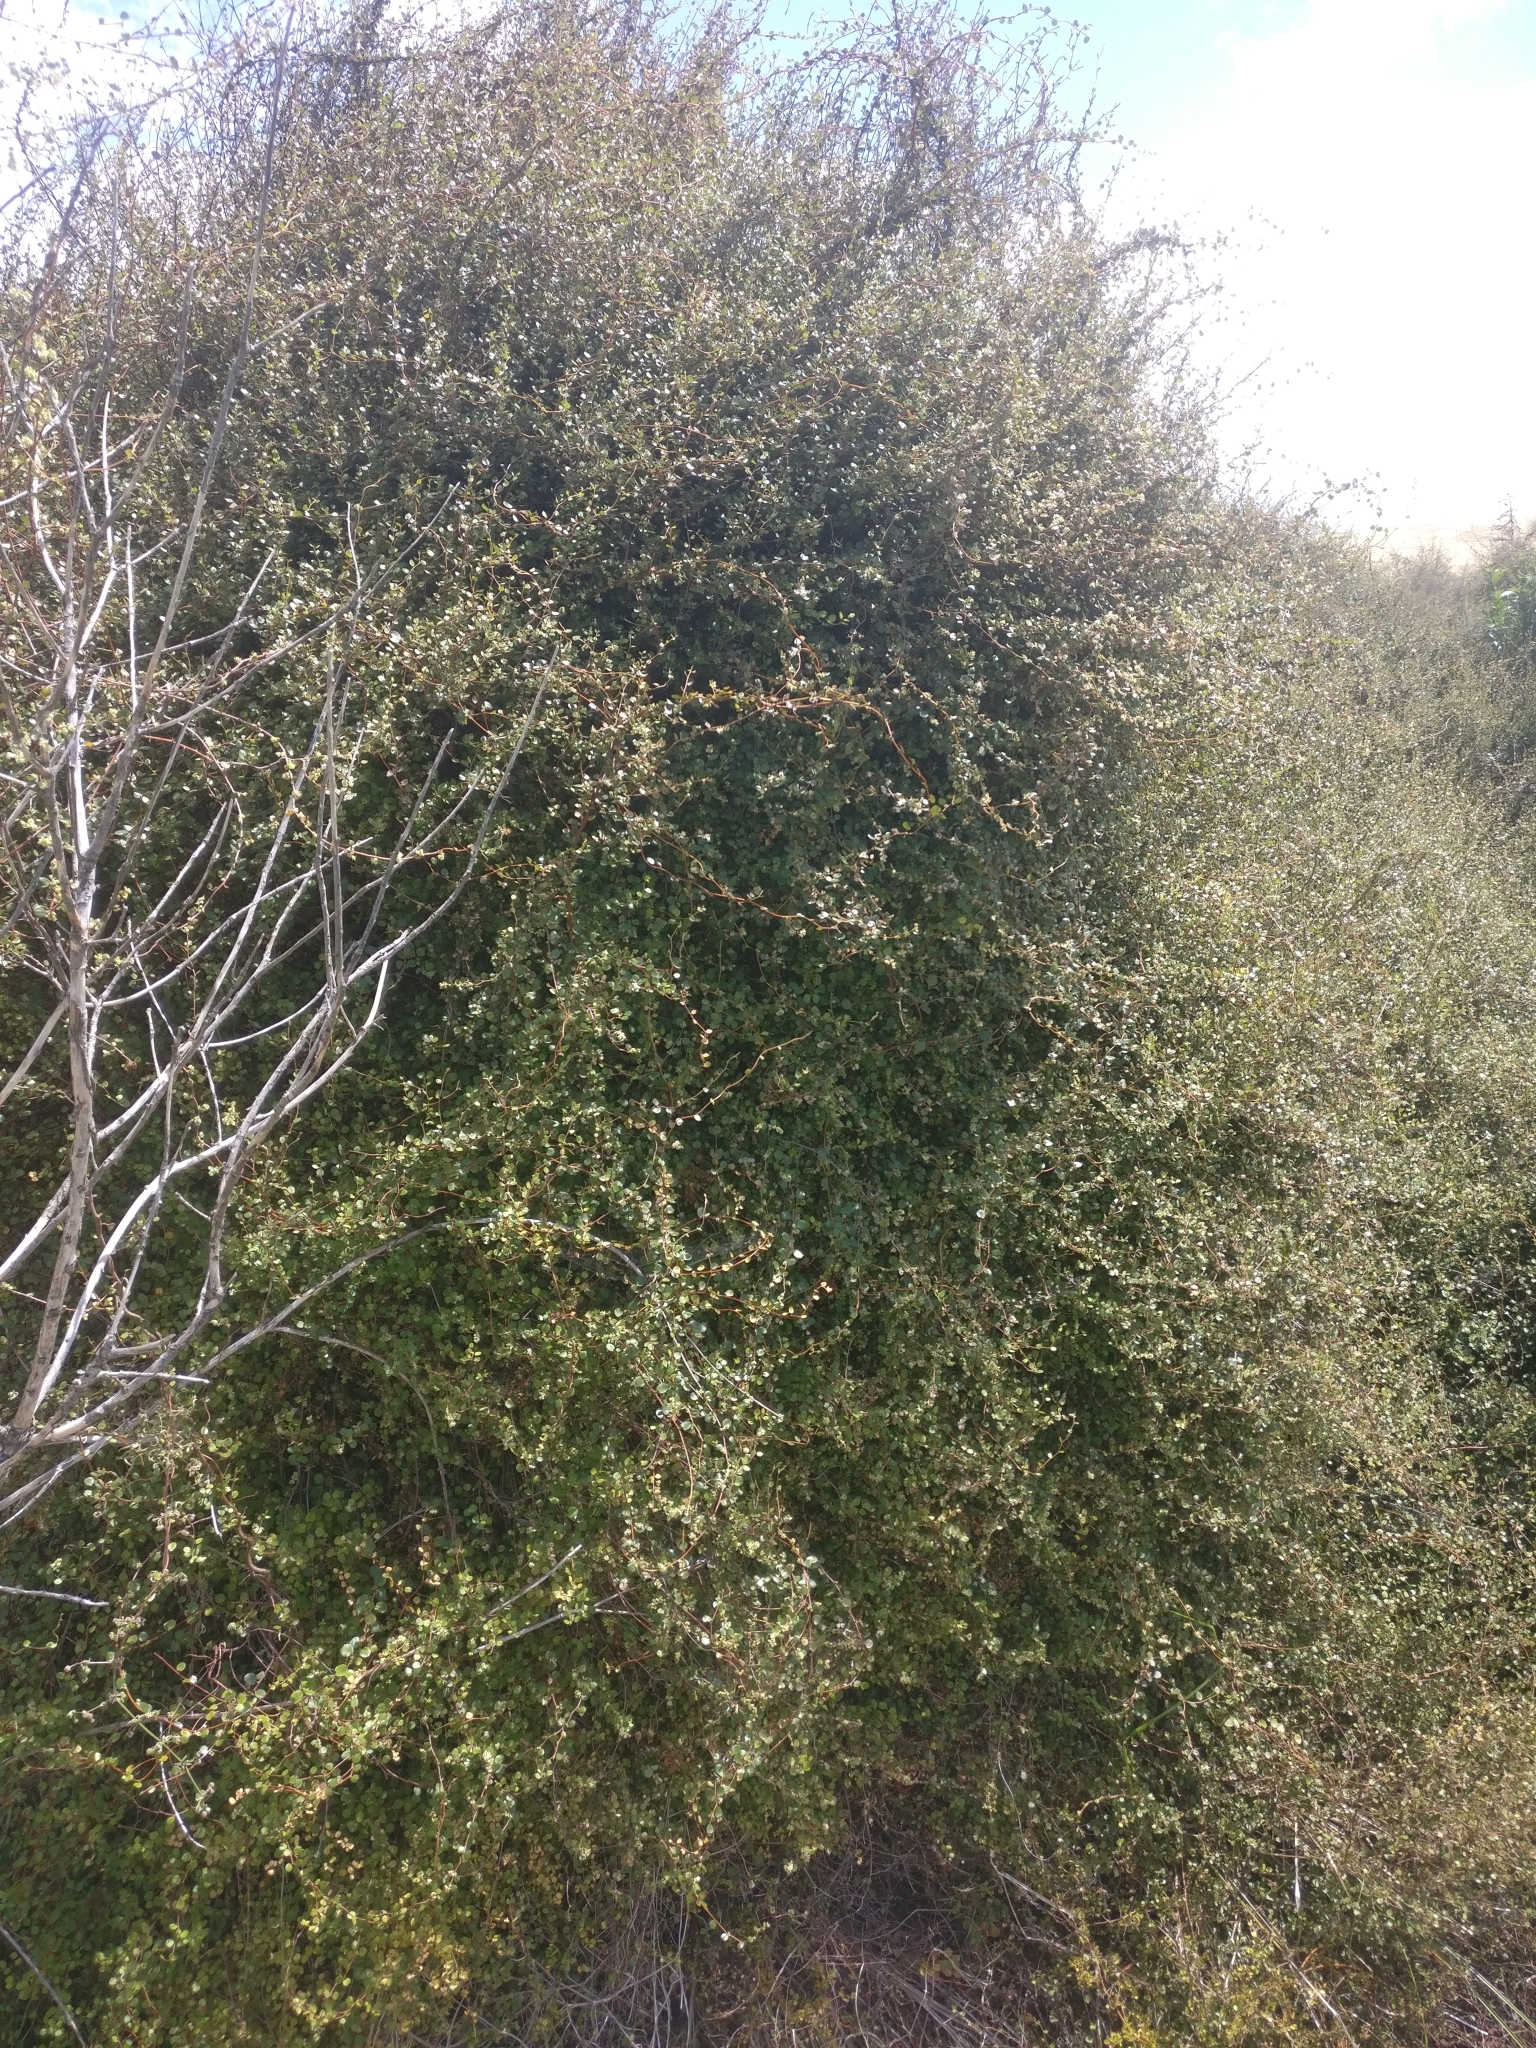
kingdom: Plantae
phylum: Tracheophyta
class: Magnoliopsida
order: Caryophyllales
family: Polygonaceae
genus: Muehlenbeckia
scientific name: Muehlenbeckia complexa
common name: Wireplant
